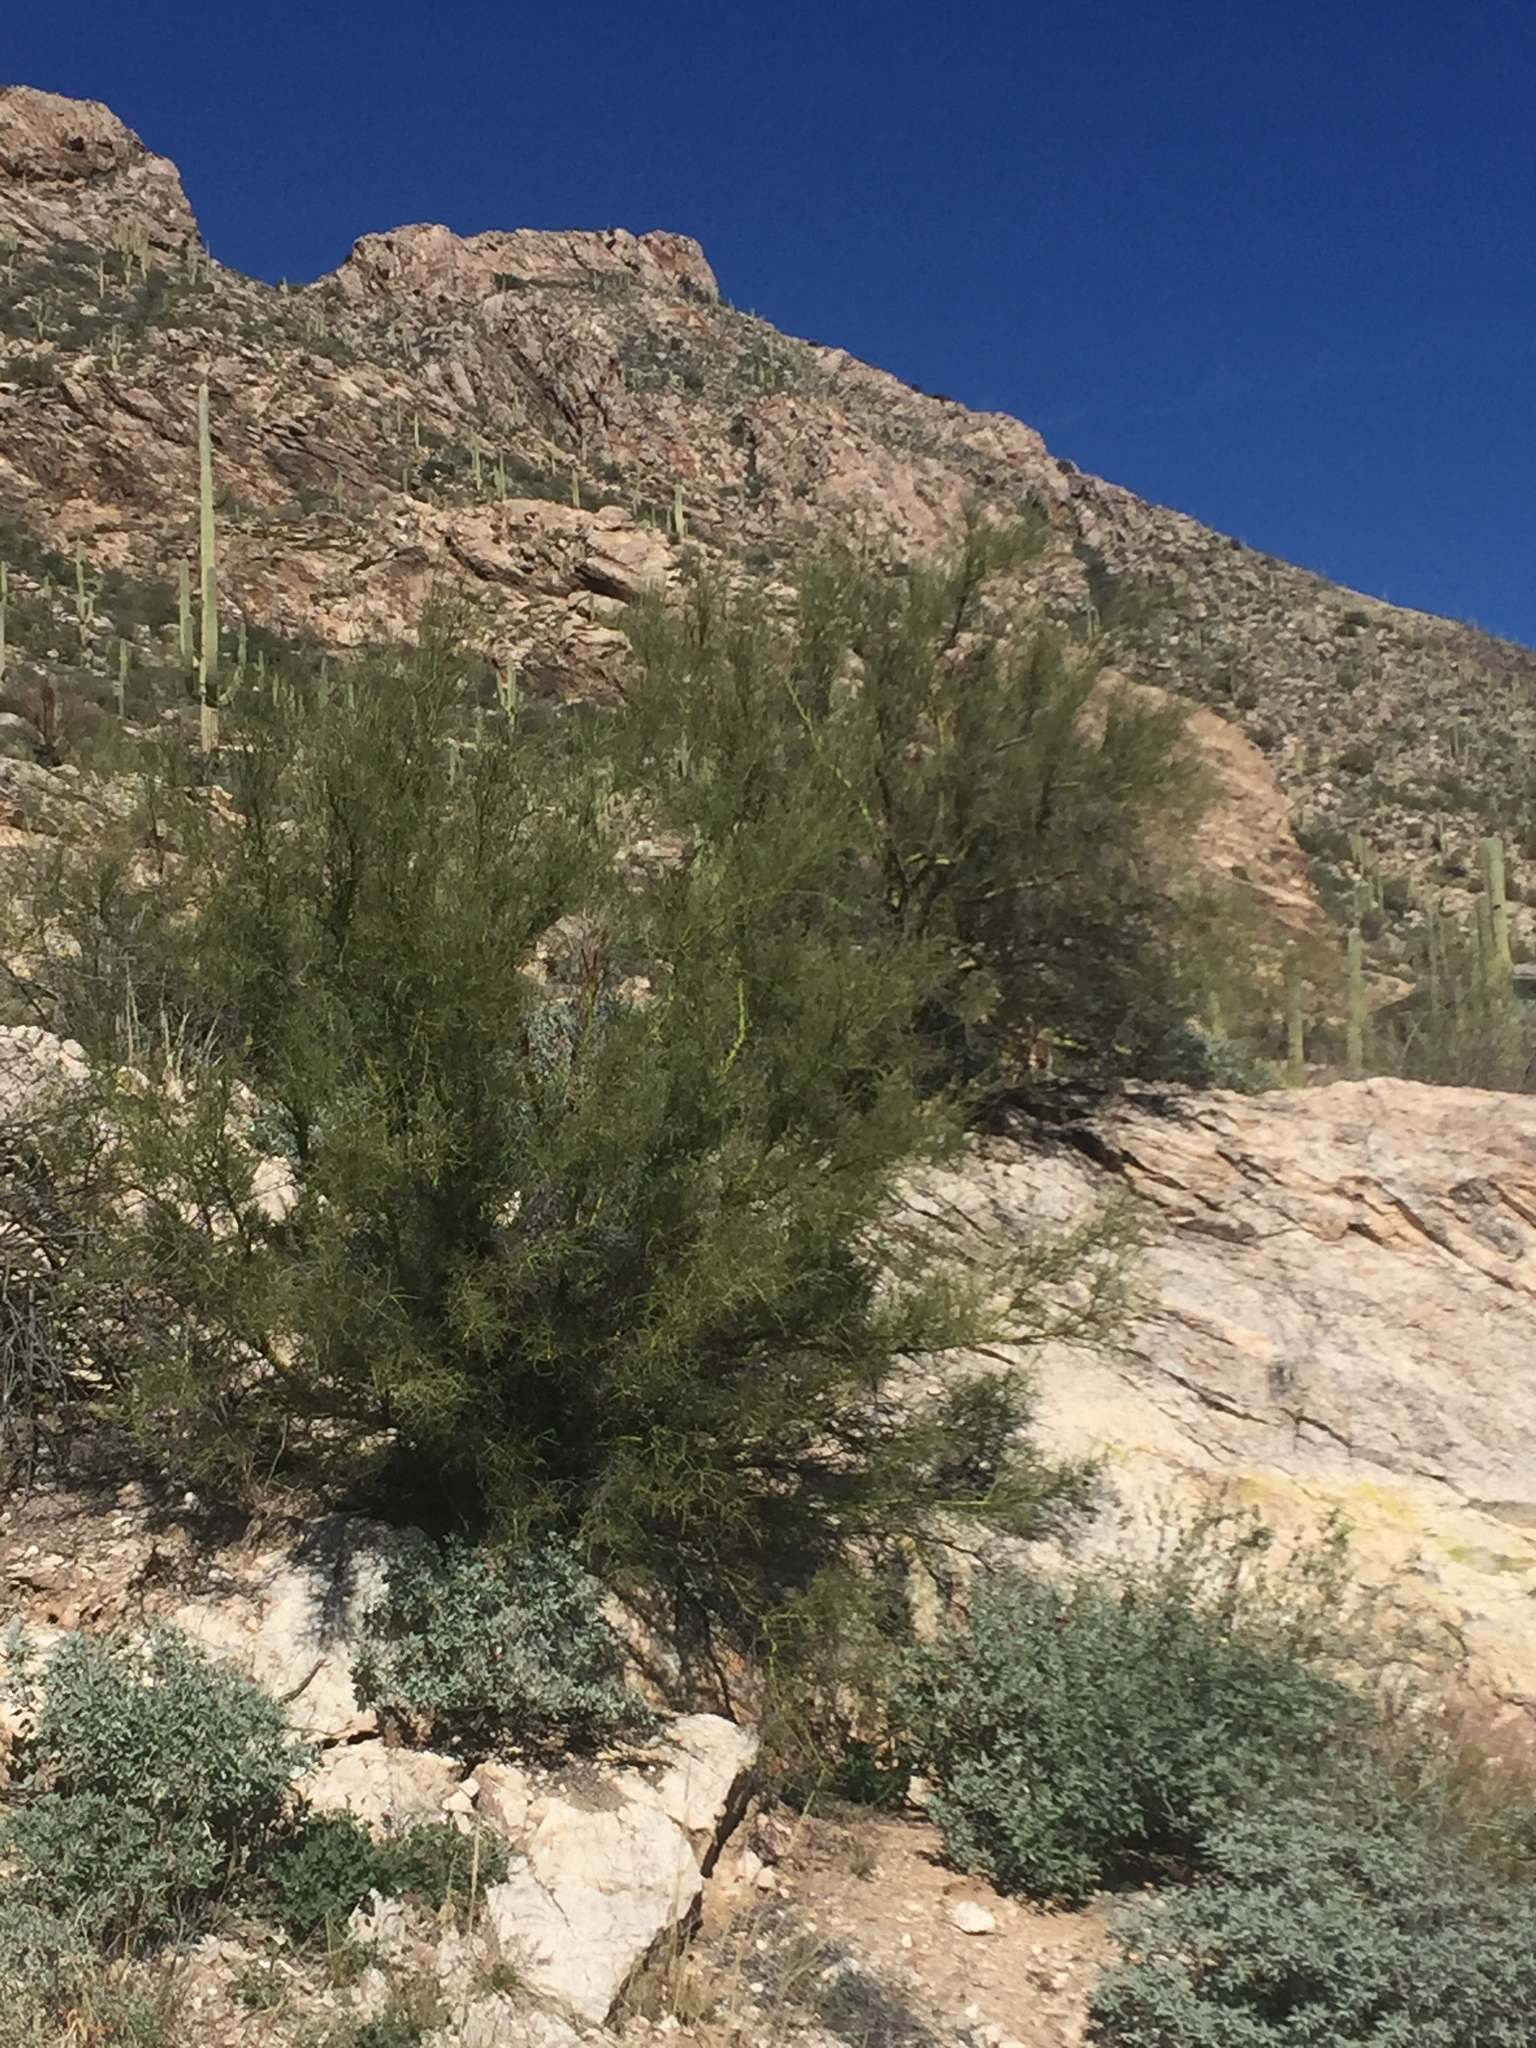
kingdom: Plantae
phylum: Tracheophyta
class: Magnoliopsida
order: Fabales
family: Fabaceae
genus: Parkinsonia
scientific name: Parkinsonia microphylla
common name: Yellow paloverde
